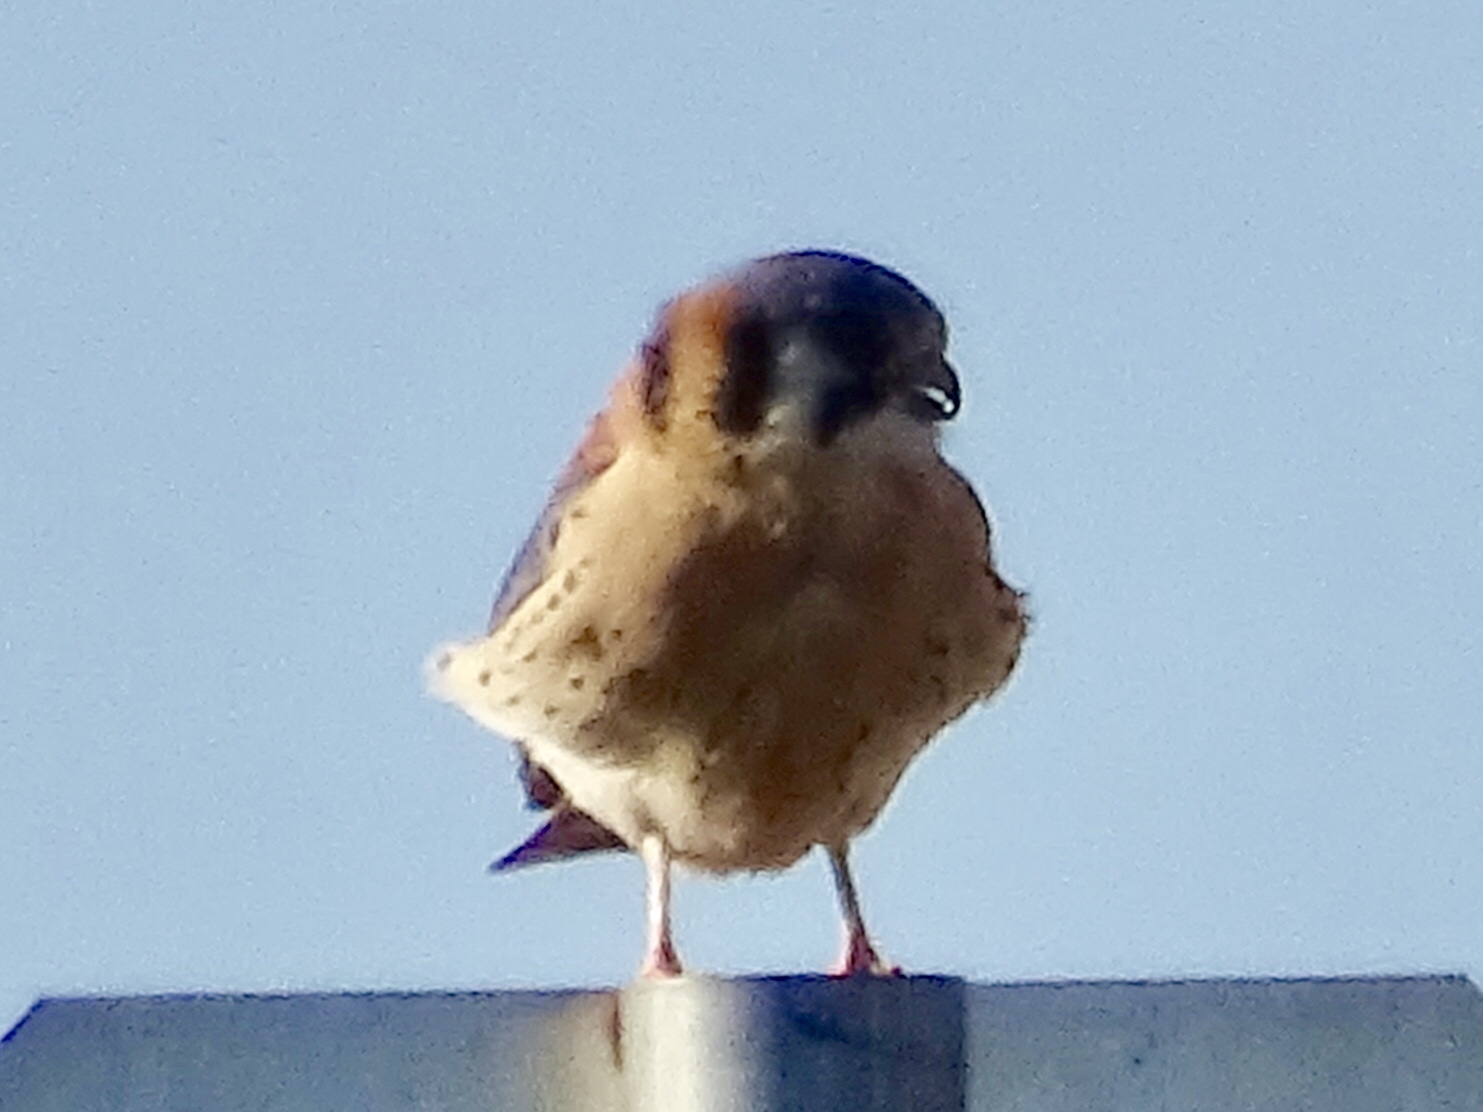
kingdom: Animalia
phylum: Chordata
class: Aves
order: Falconiformes
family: Falconidae
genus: Falco
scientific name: Falco sparverius
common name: American kestrel
